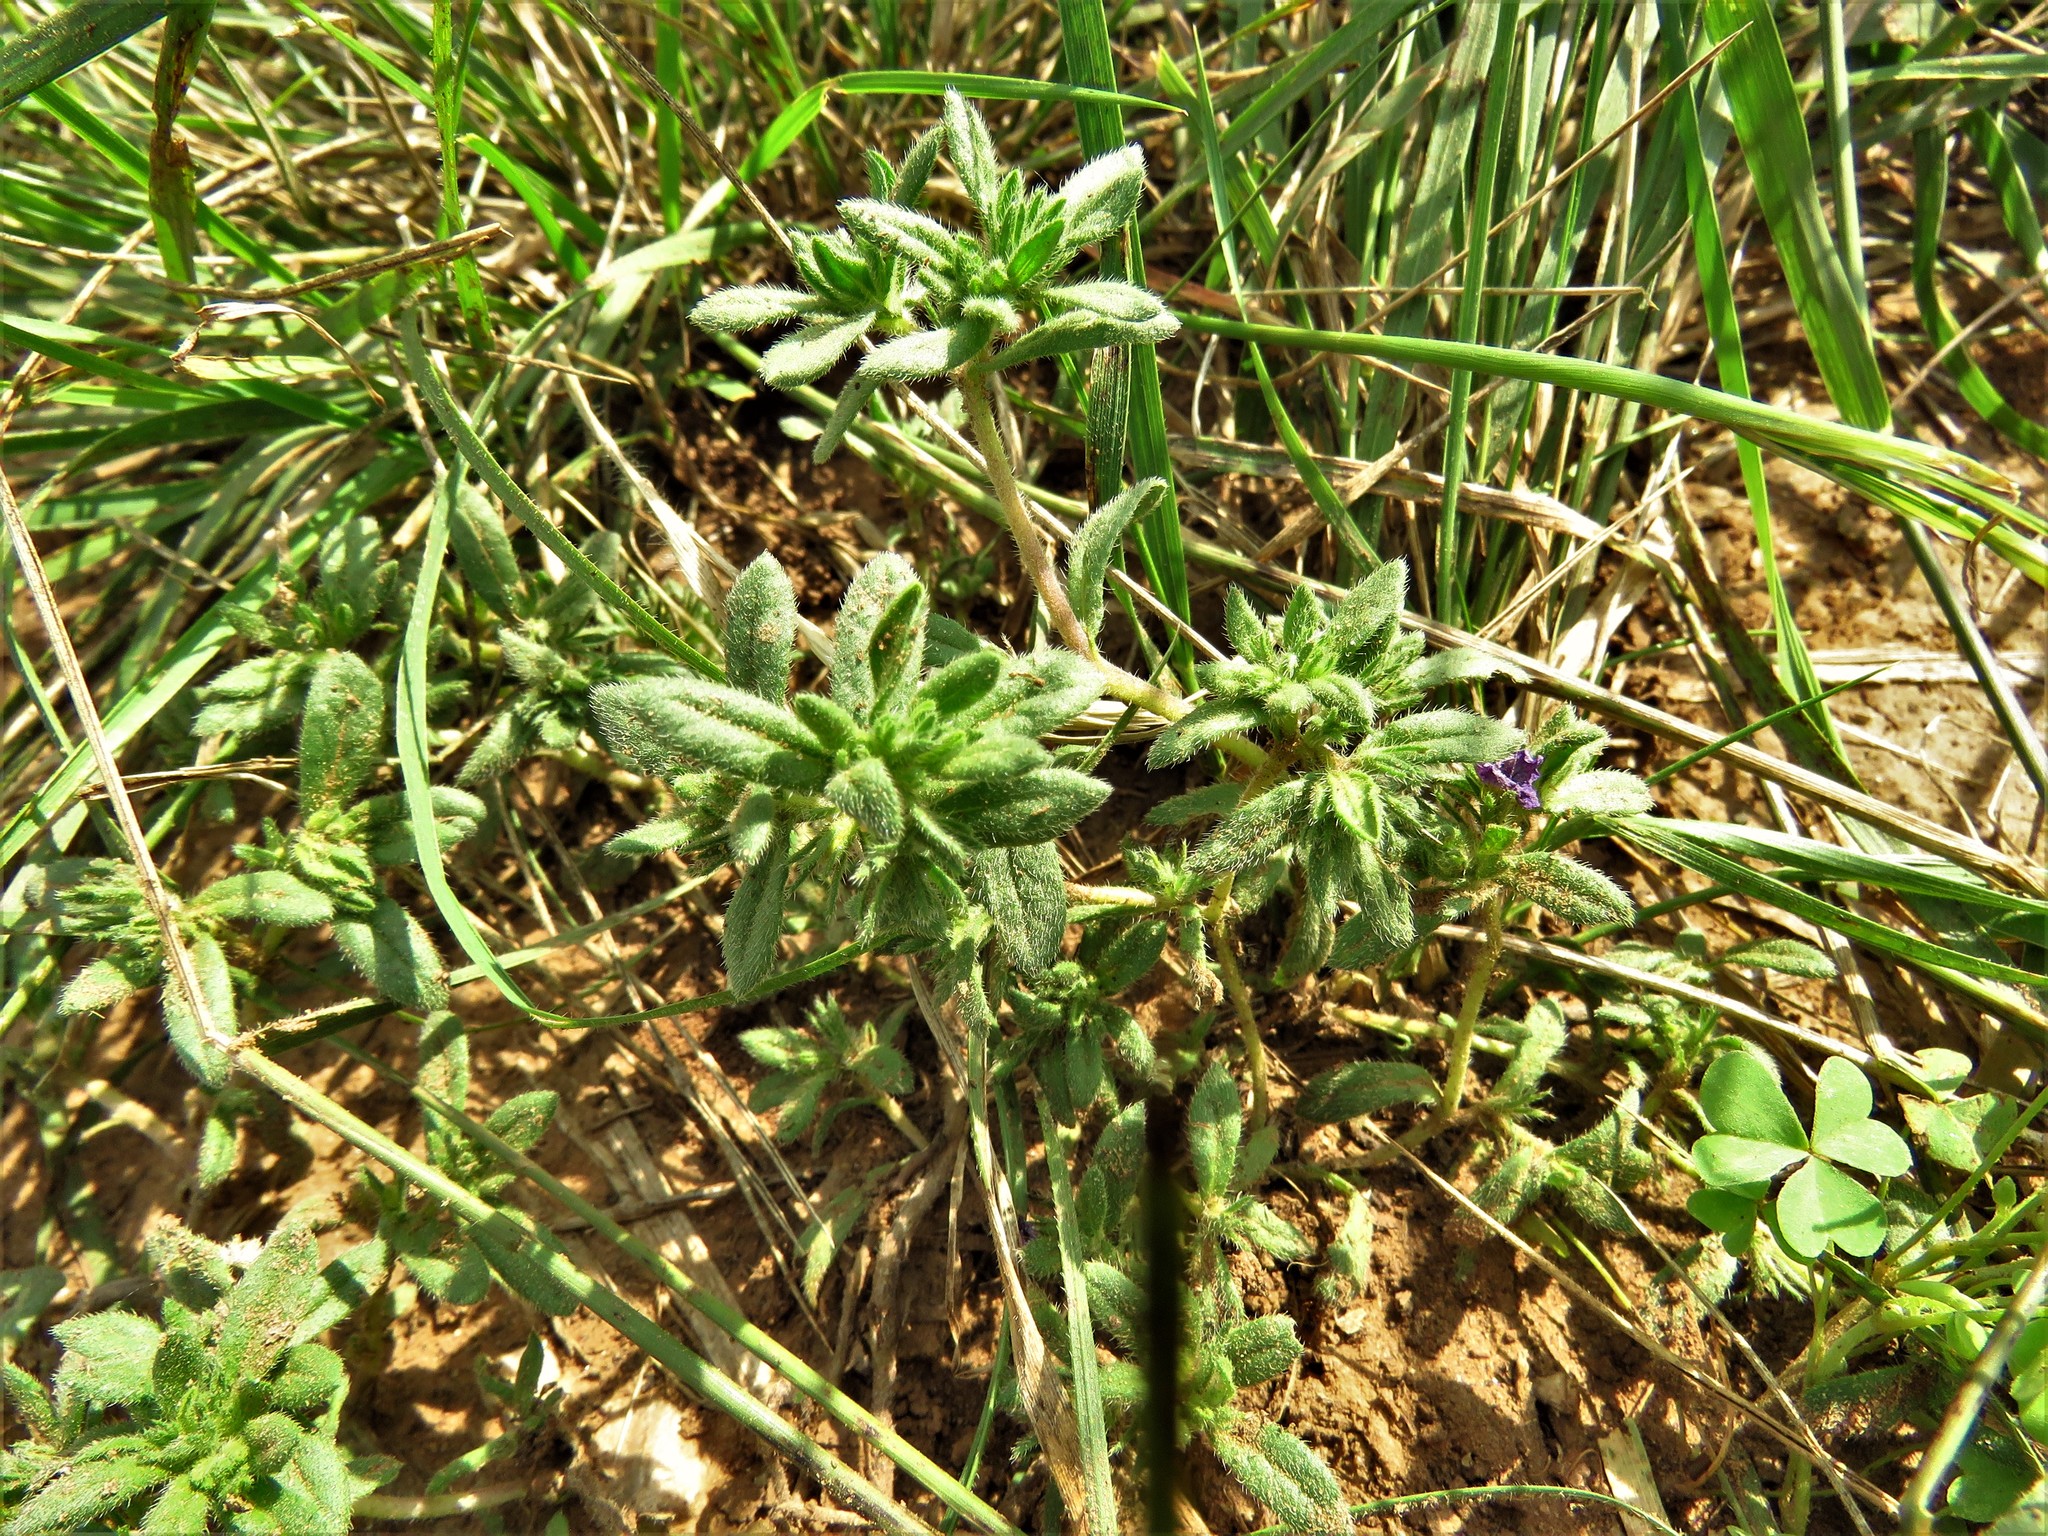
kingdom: Plantae
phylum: Tracheophyta
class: Magnoliopsida
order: Boraginales
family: Namaceae
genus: Nama
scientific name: Nama hispida
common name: Bristly nama
